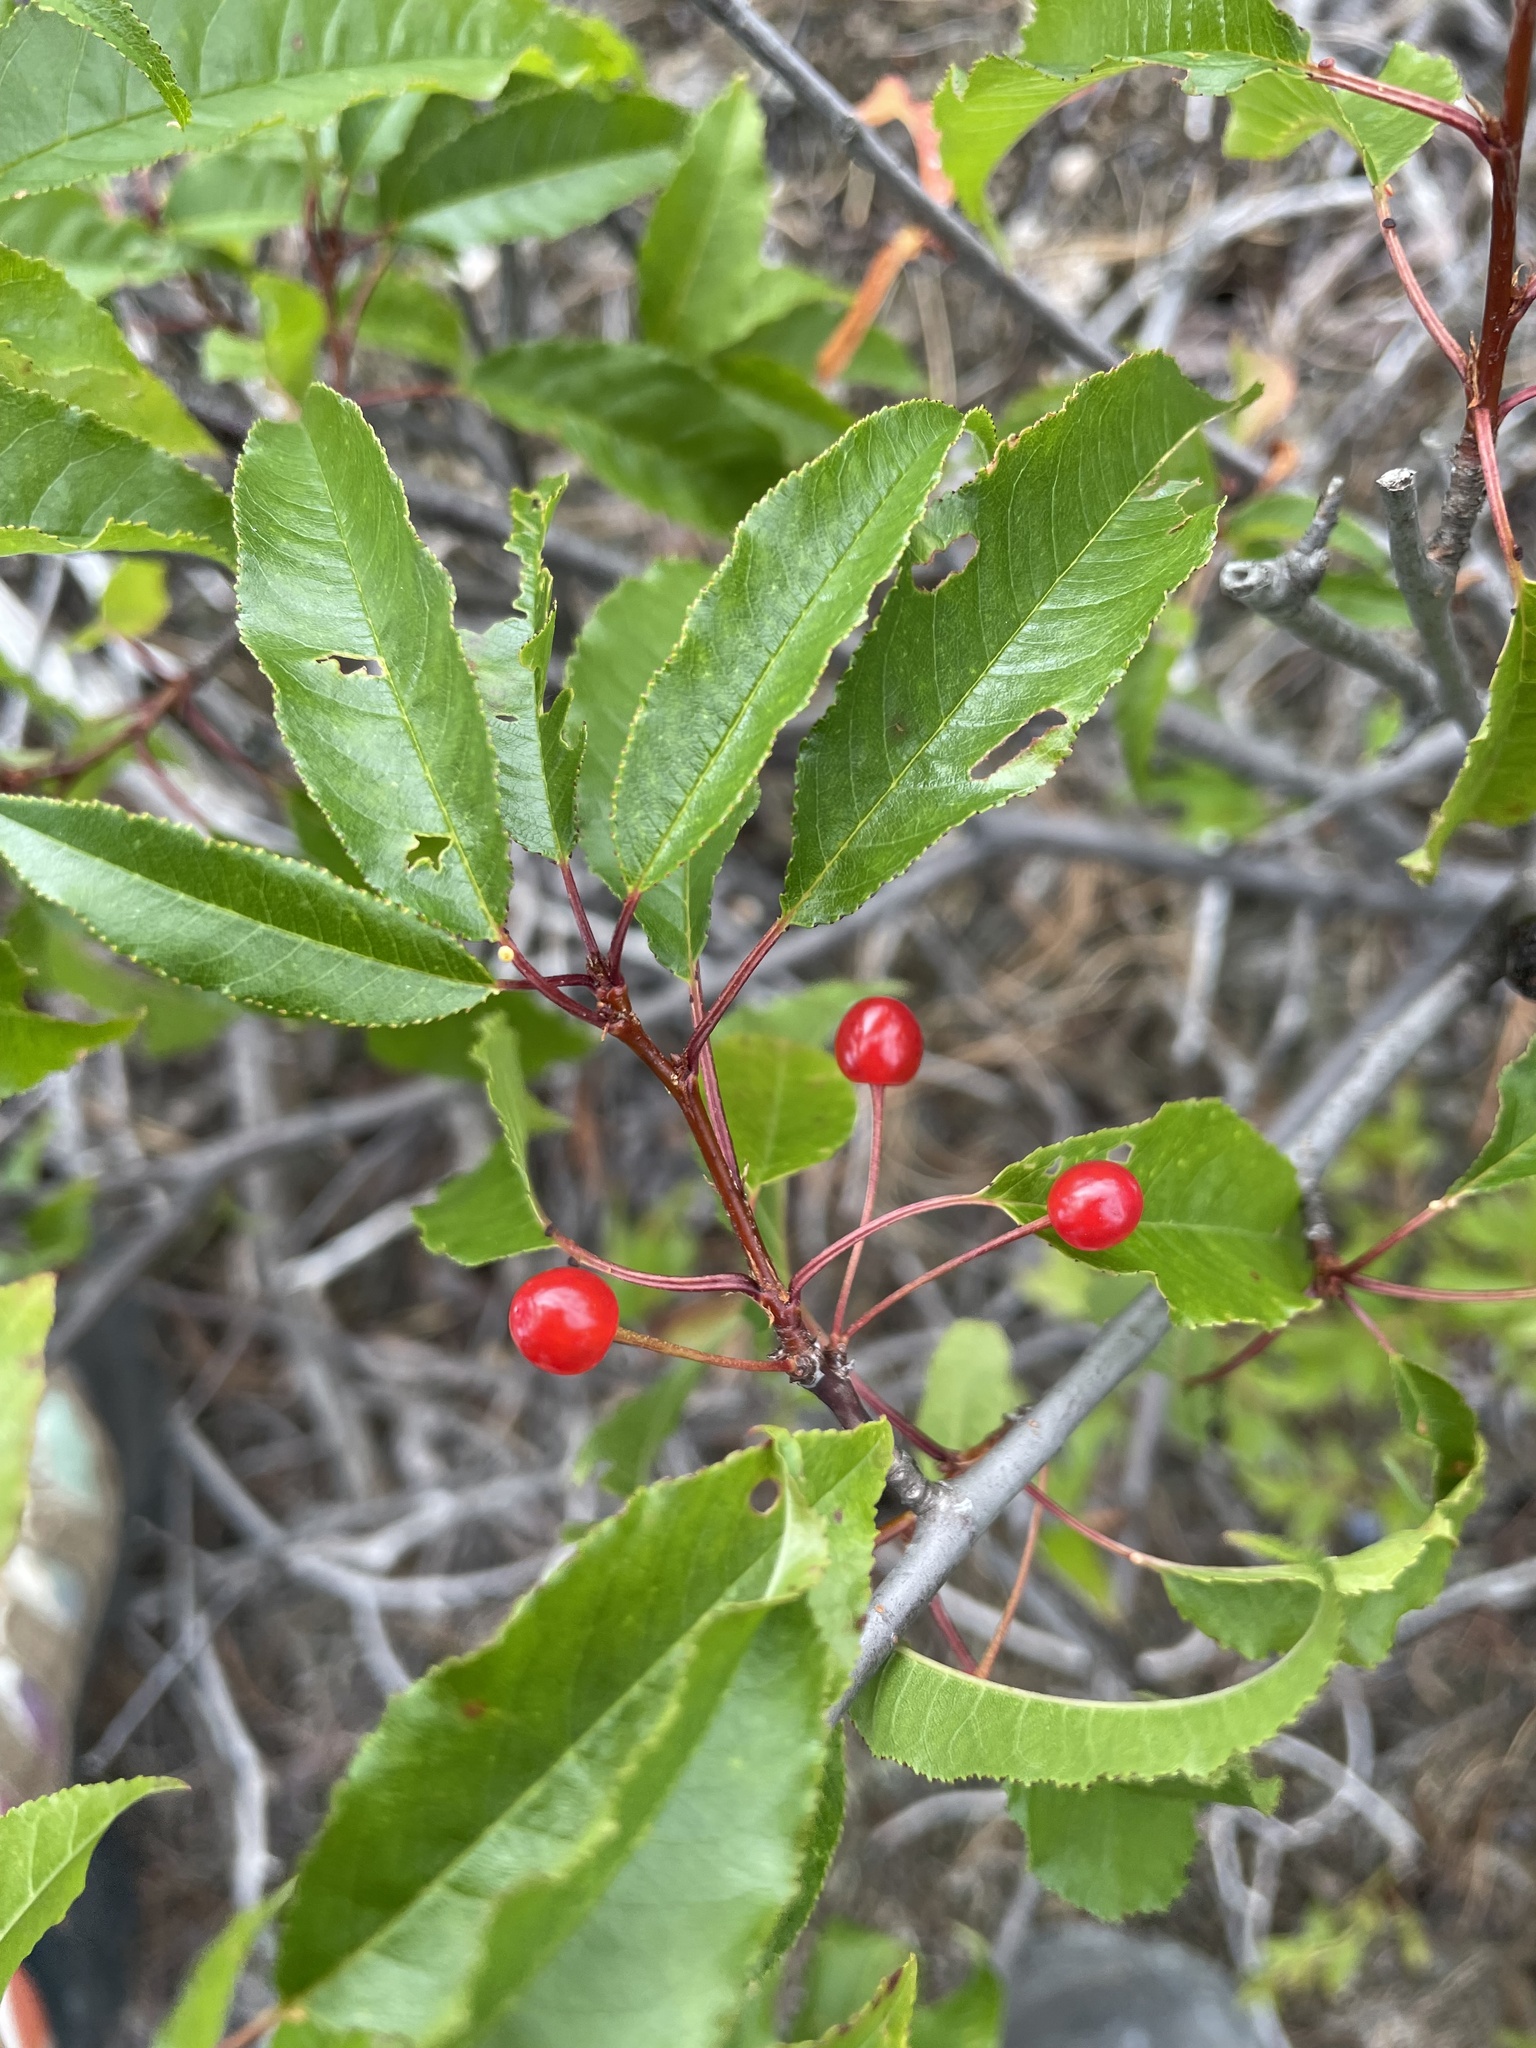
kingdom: Plantae
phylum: Tracheophyta
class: Magnoliopsida
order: Rosales
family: Rosaceae
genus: Prunus
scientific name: Prunus pensylvanica
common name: Pin cherry
